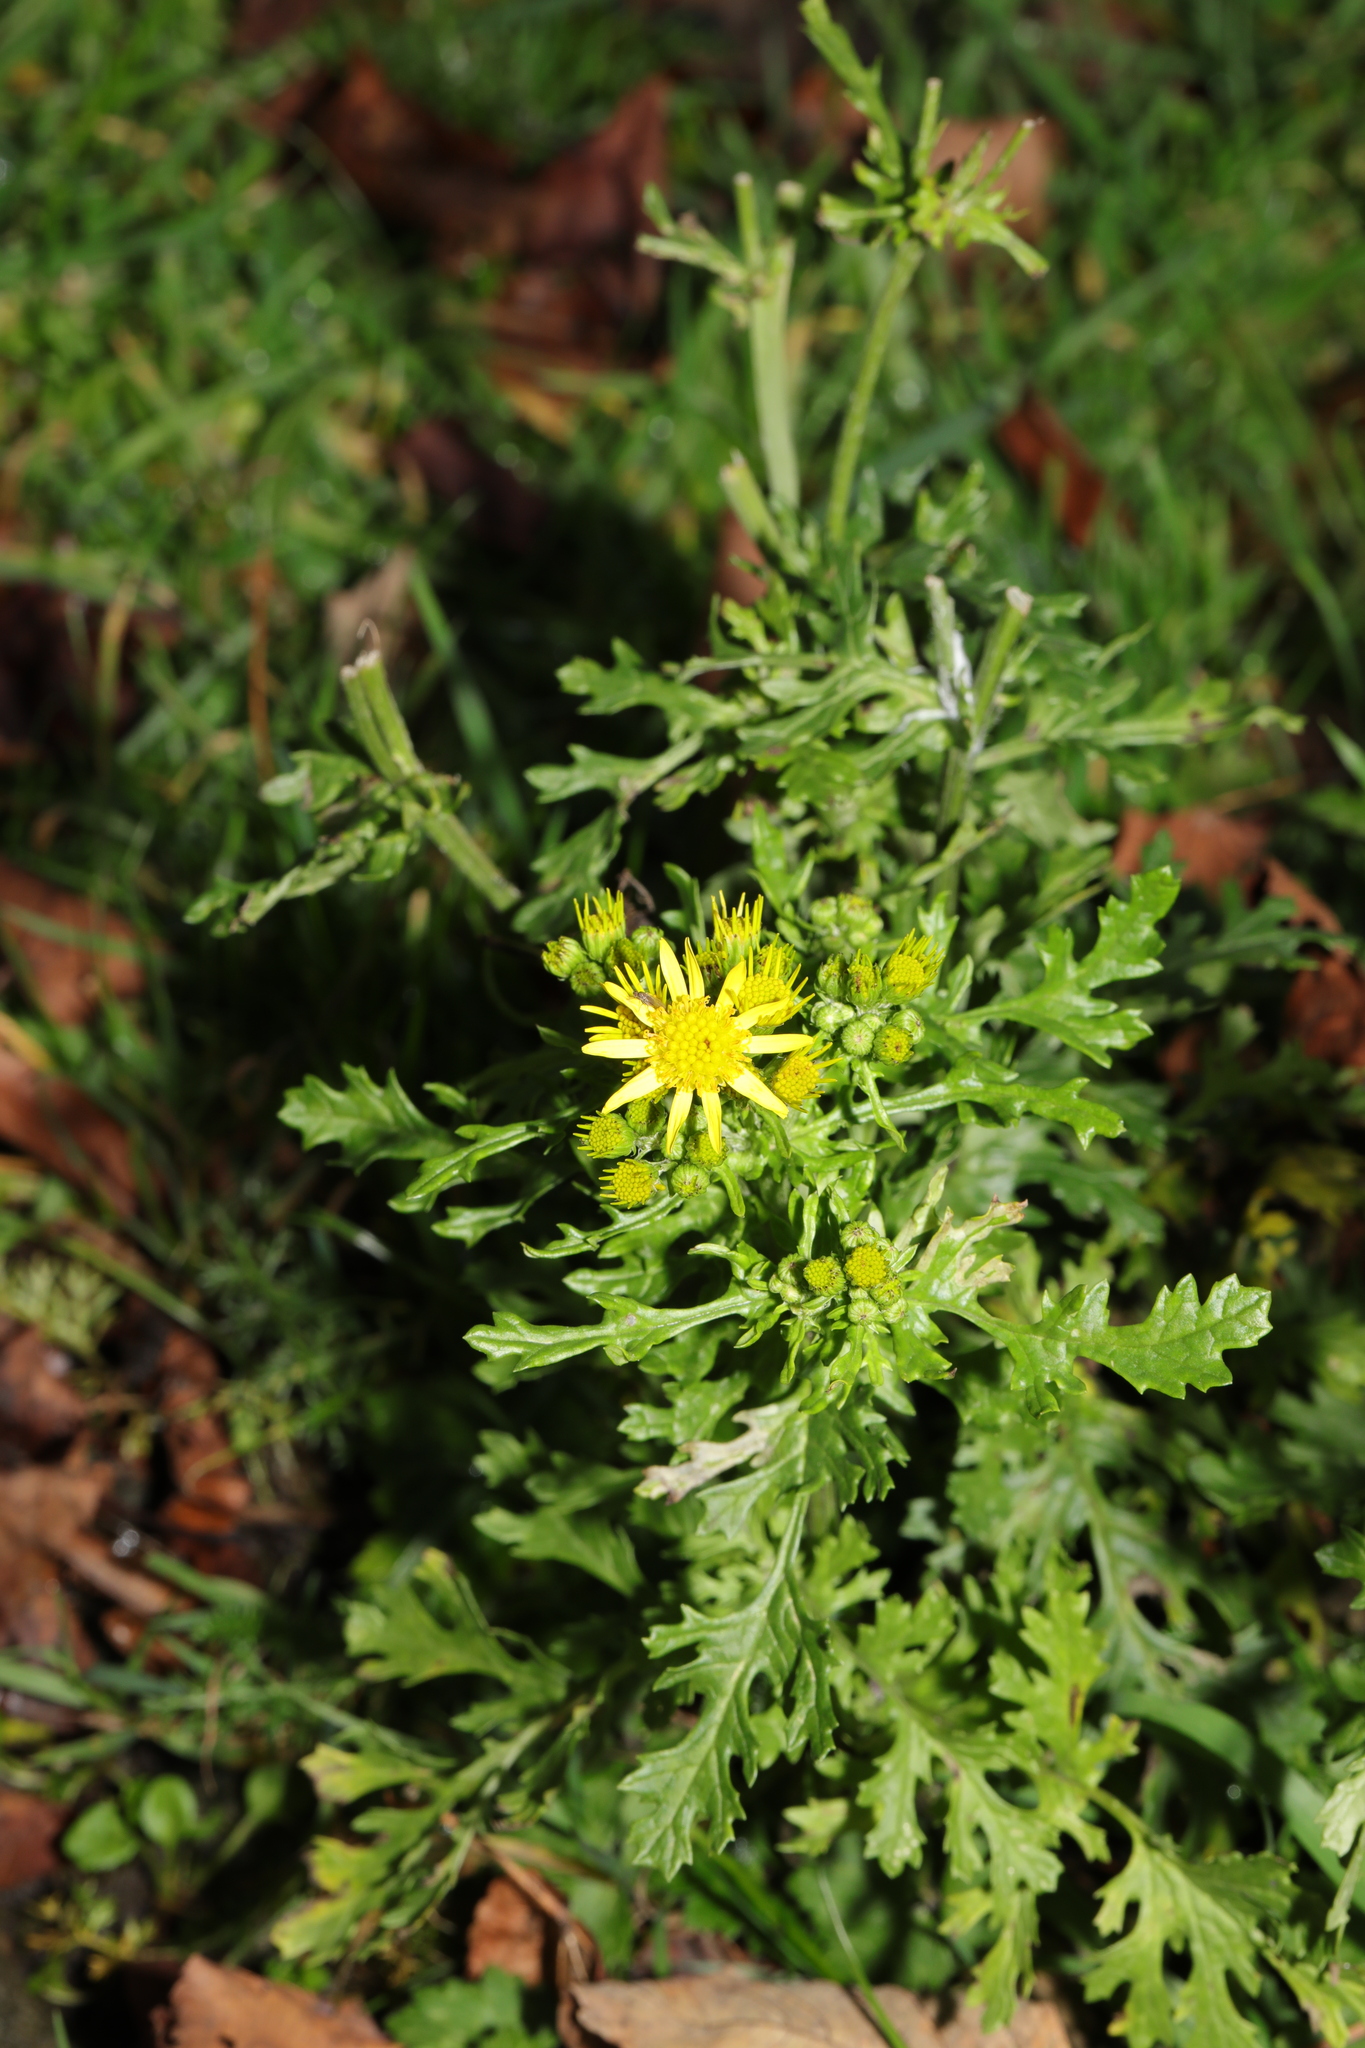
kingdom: Plantae
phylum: Tracheophyta
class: Magnoliopsida
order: Asterales
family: Asteraceae
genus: Senecio
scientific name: Senecio squalidus
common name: Oxford ragwort
